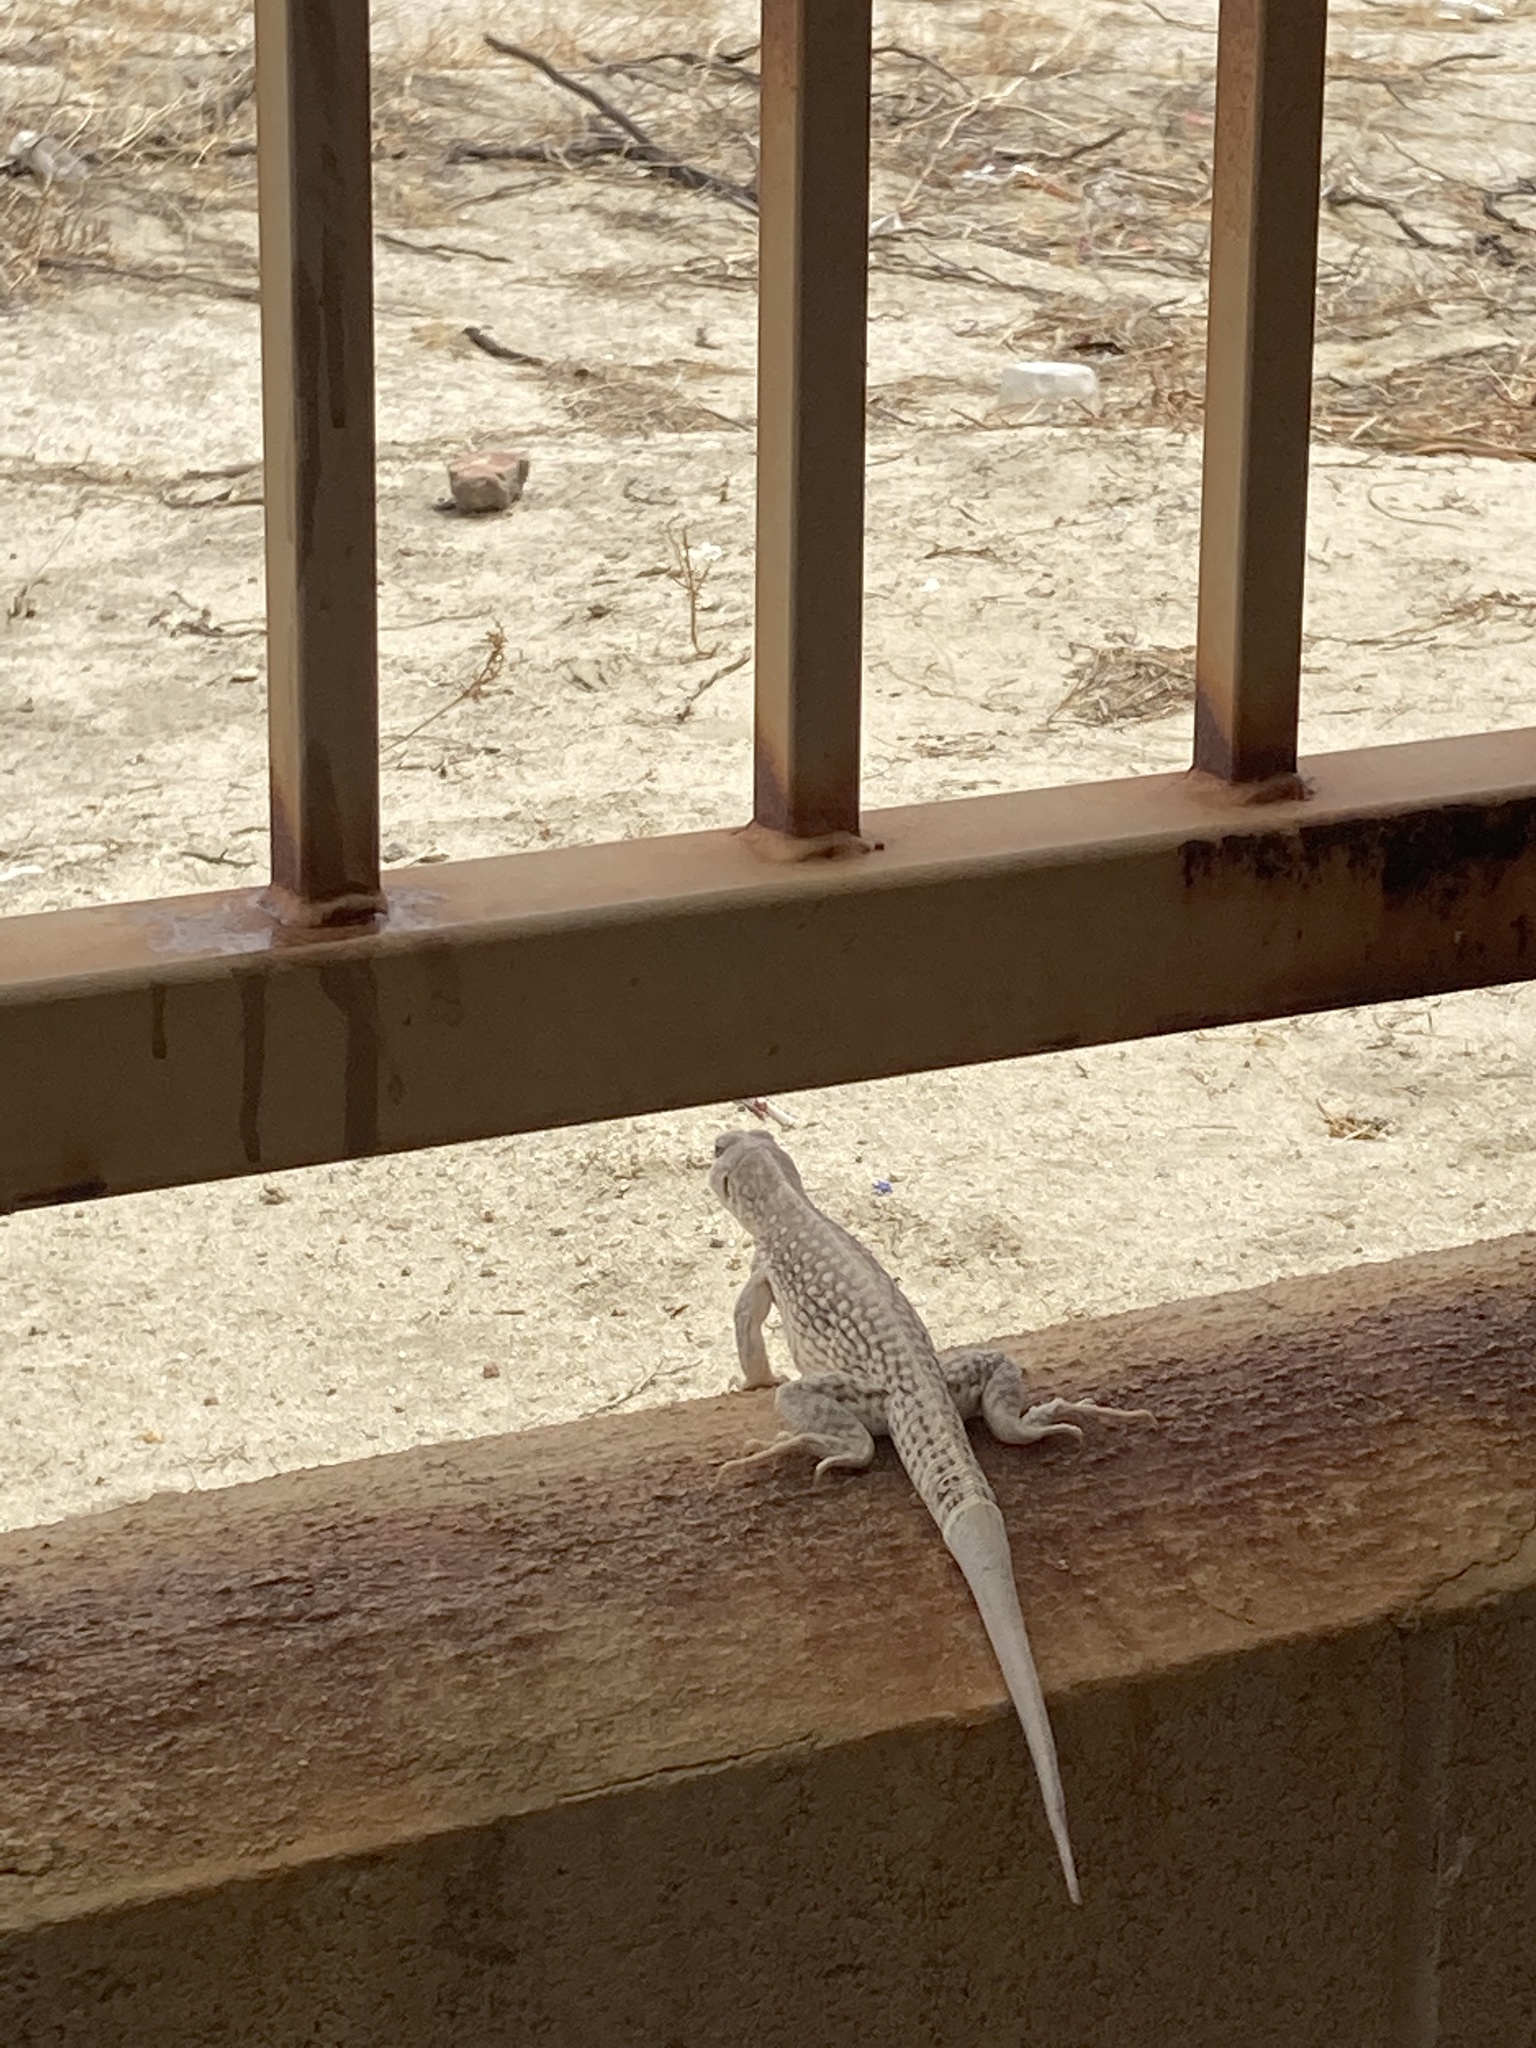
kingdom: Animalia
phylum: Chordata
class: Squamata
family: Iguanidae
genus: Dipsosaurus
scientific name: Dipsosaurus dorsalis
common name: Desert iguana
